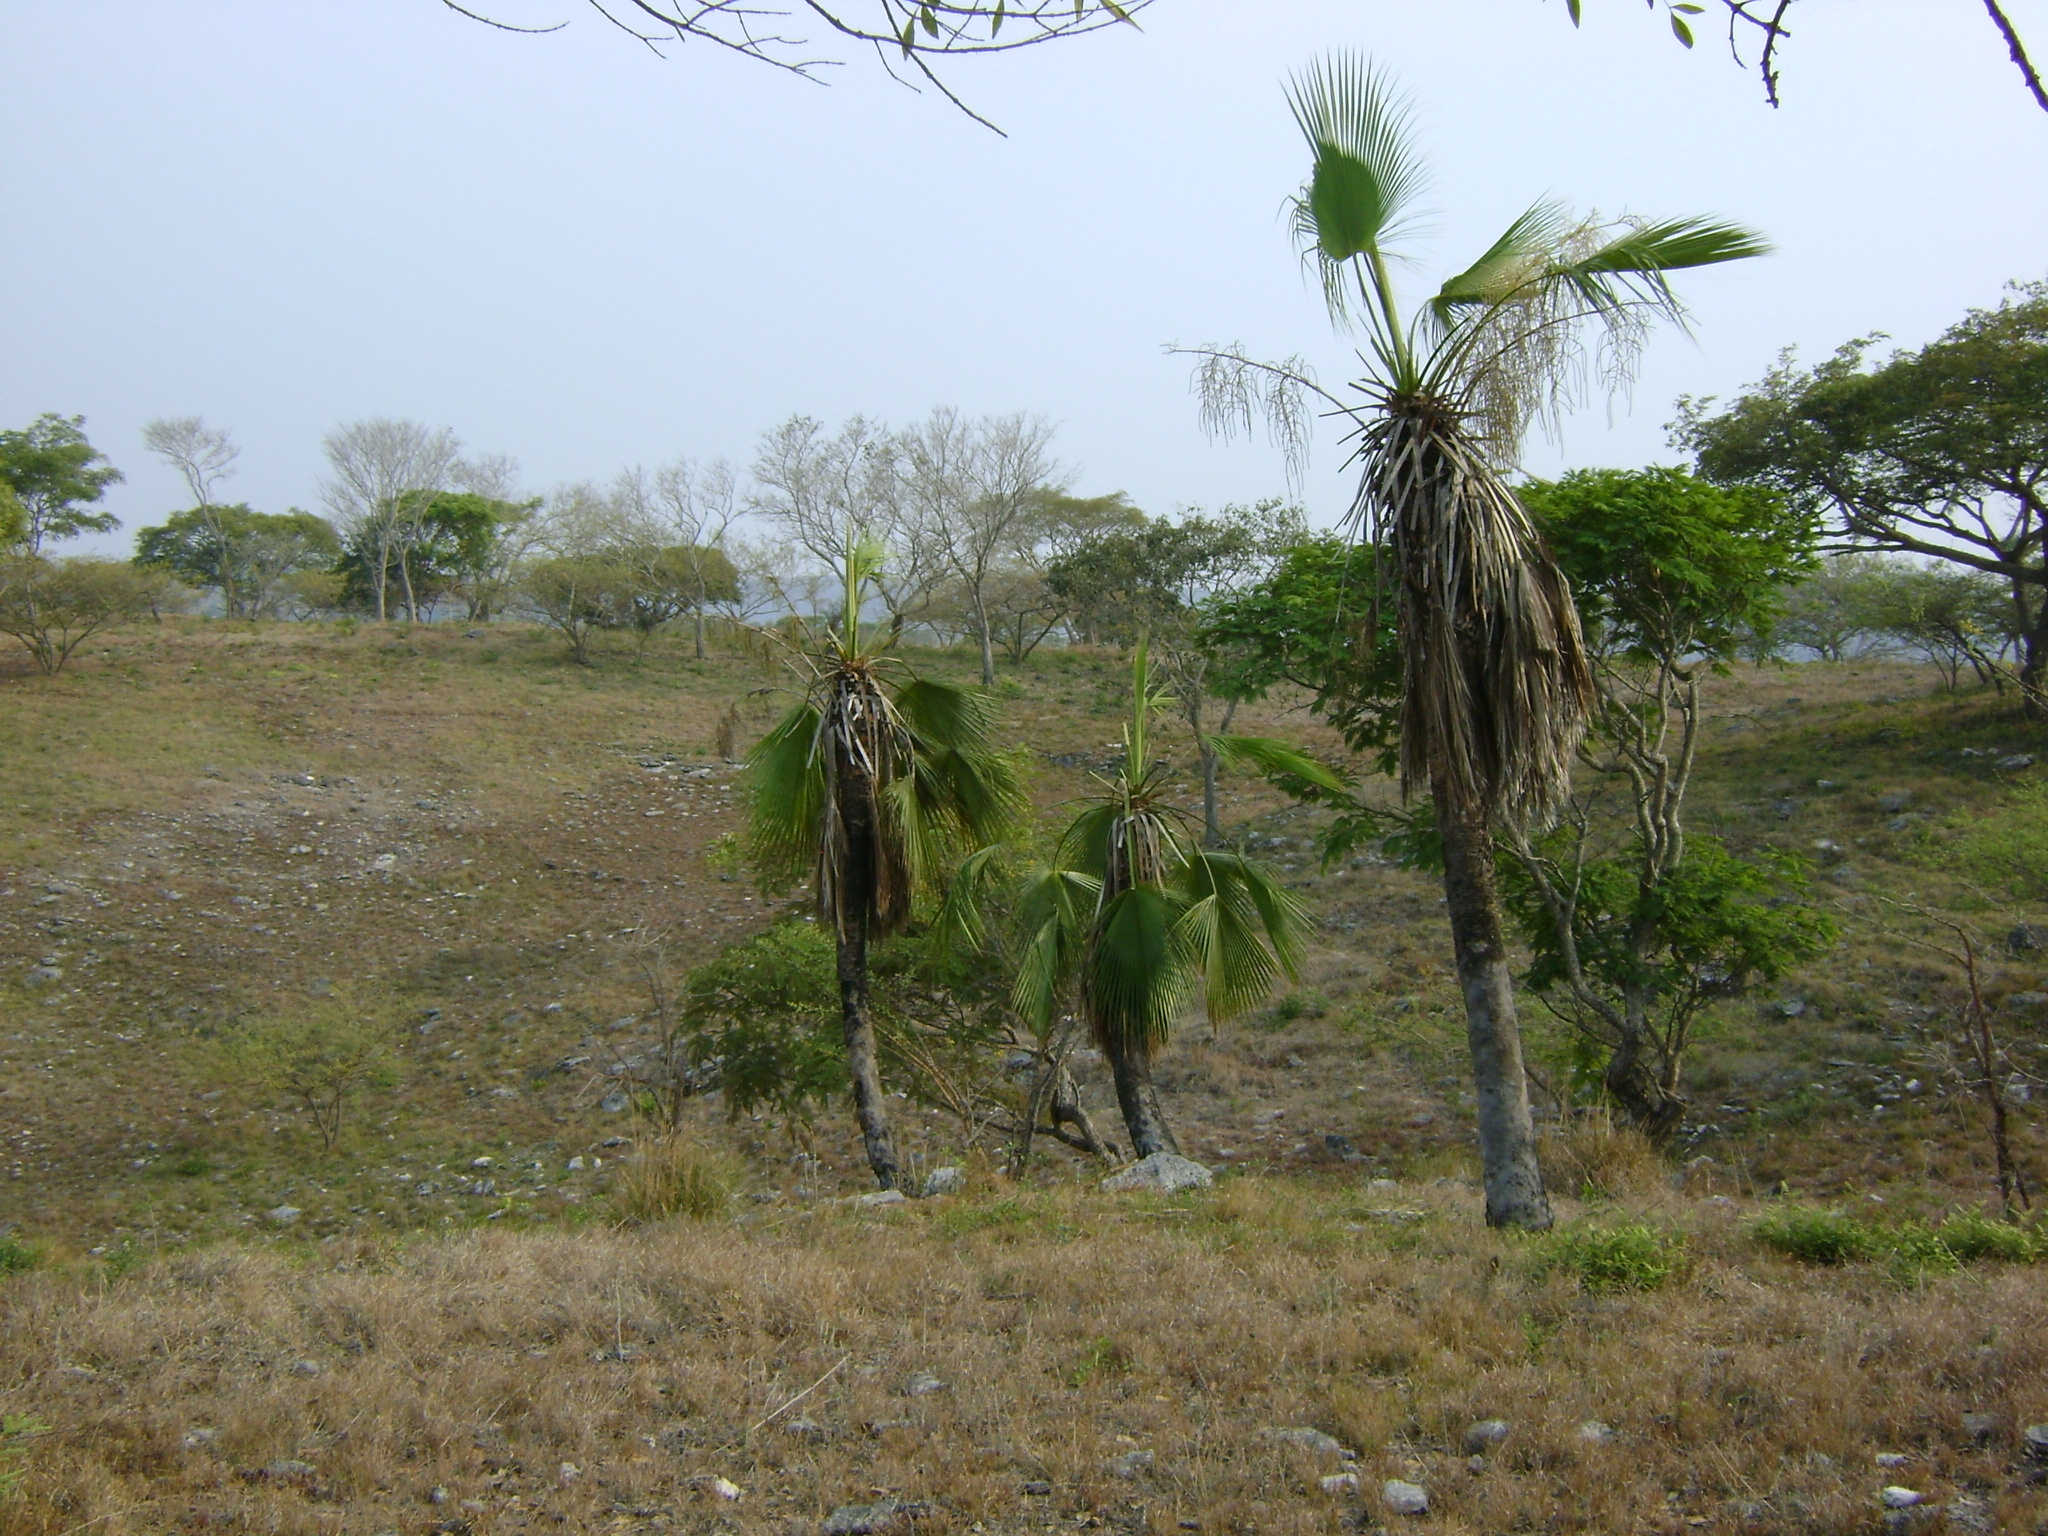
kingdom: Plantae
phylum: Tracheophyta
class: Liliopsida
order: Arecales
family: Arecaceae
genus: Brahea
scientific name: Brahea dulcis
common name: Apak palm
